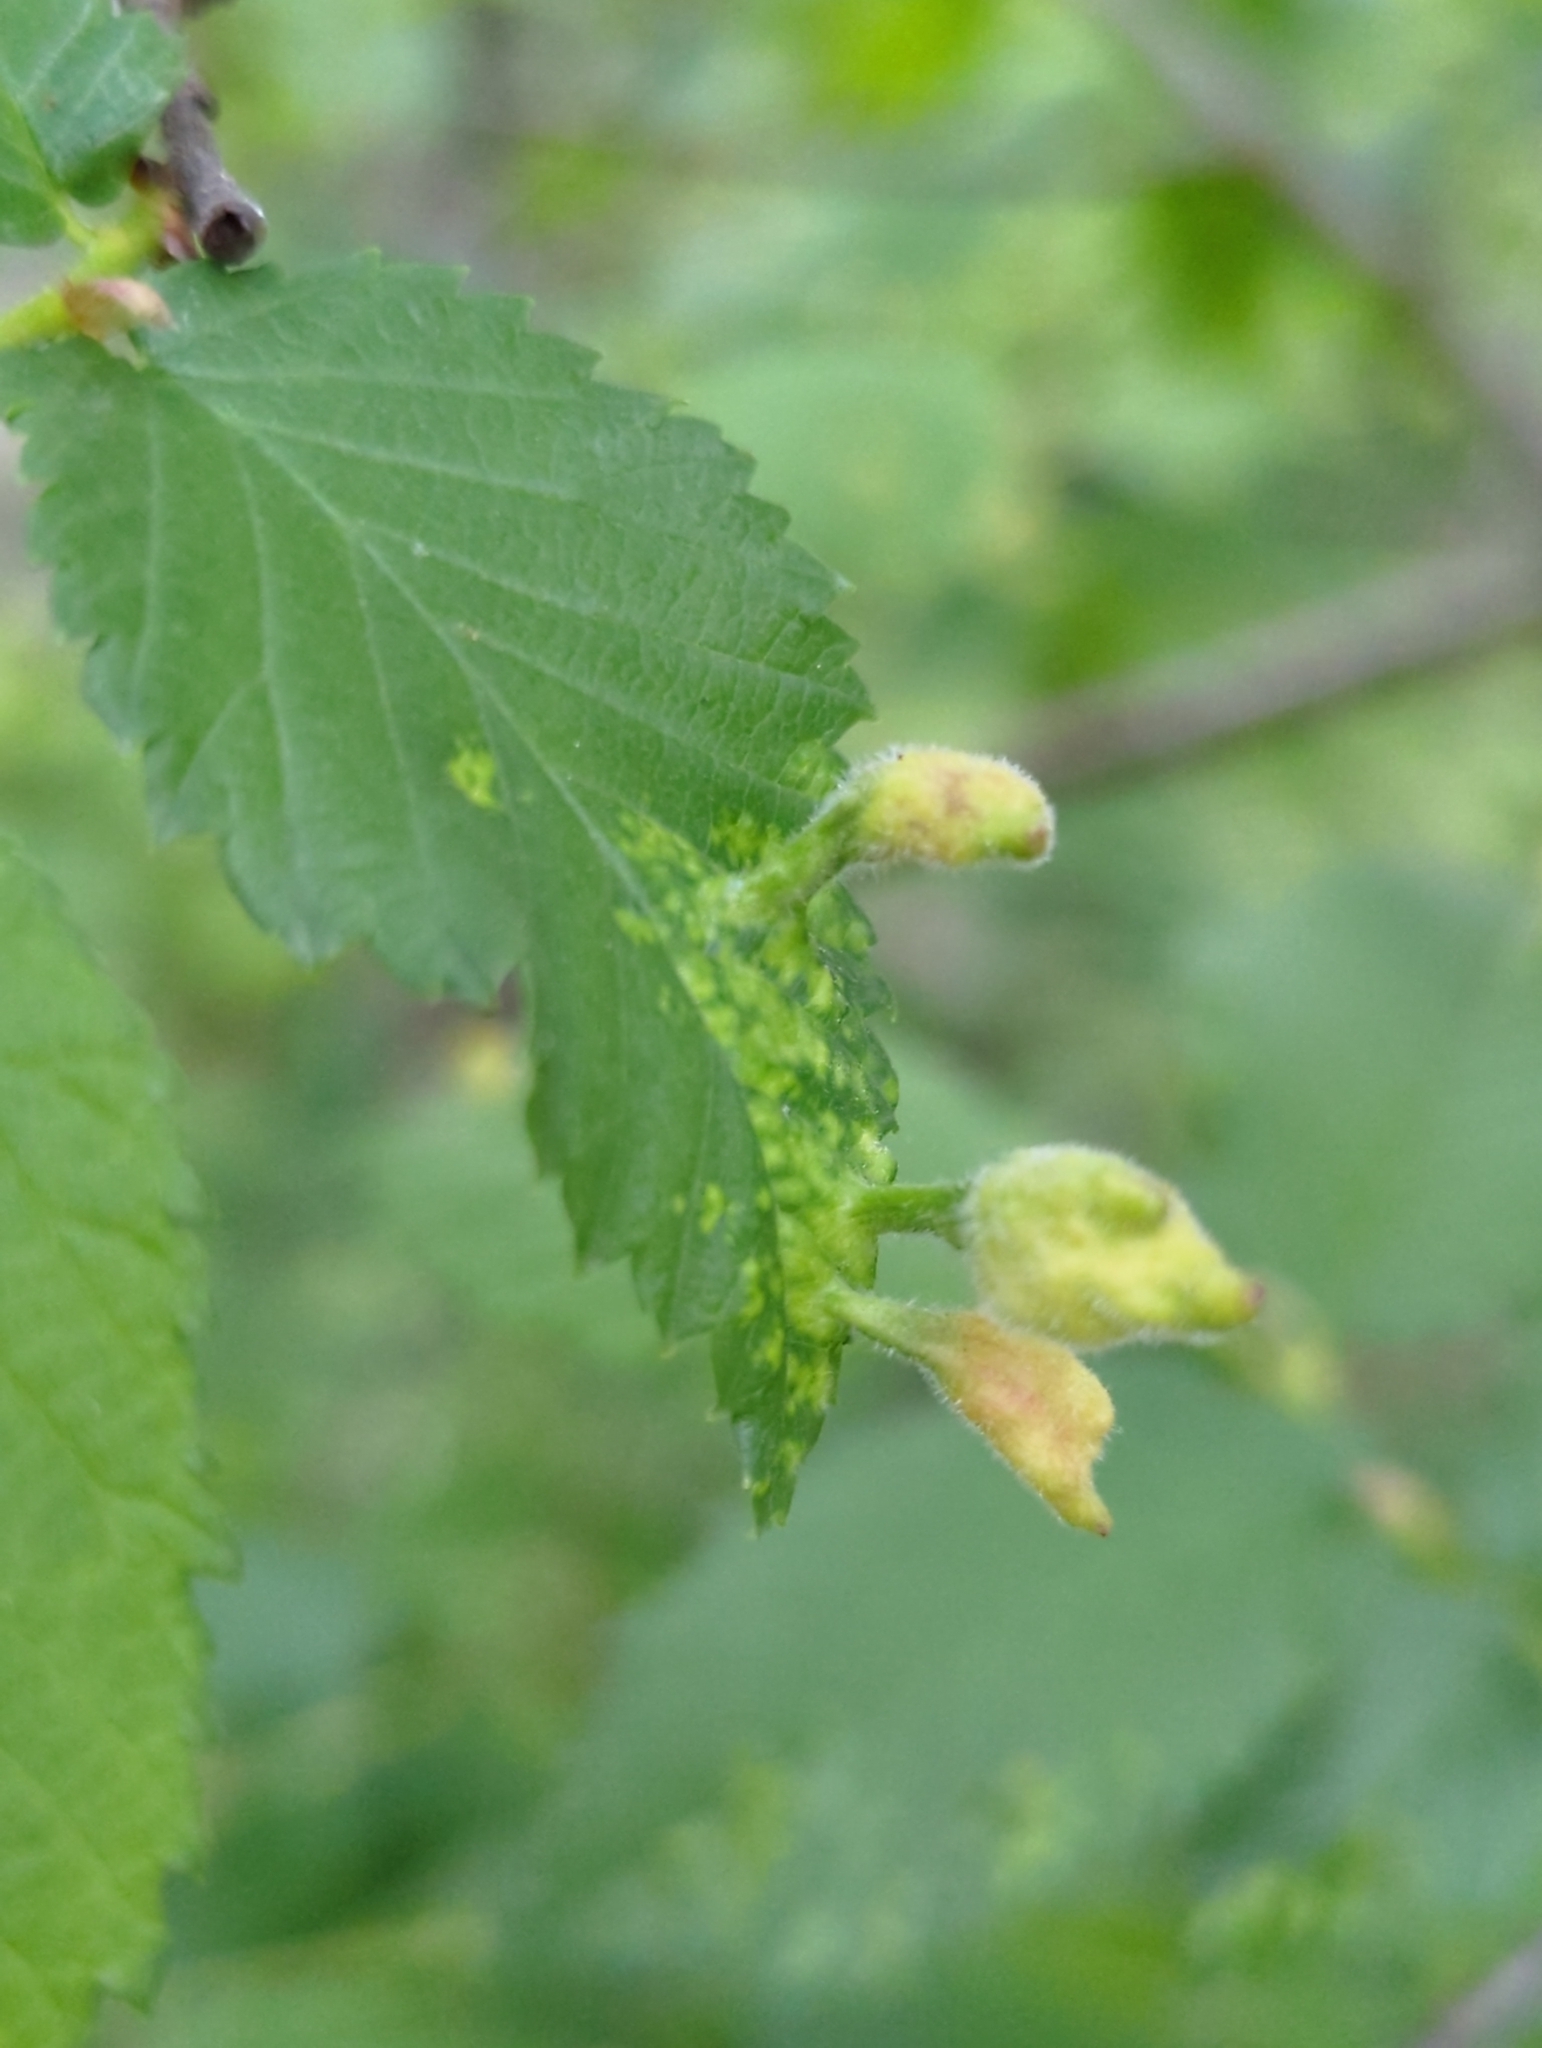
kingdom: Animalia
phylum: Arthropoda
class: Insecta
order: Hemiptera
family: Aphididae
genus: Tetraneura
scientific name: Tetraneura nigriabdominalis
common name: Aphid
